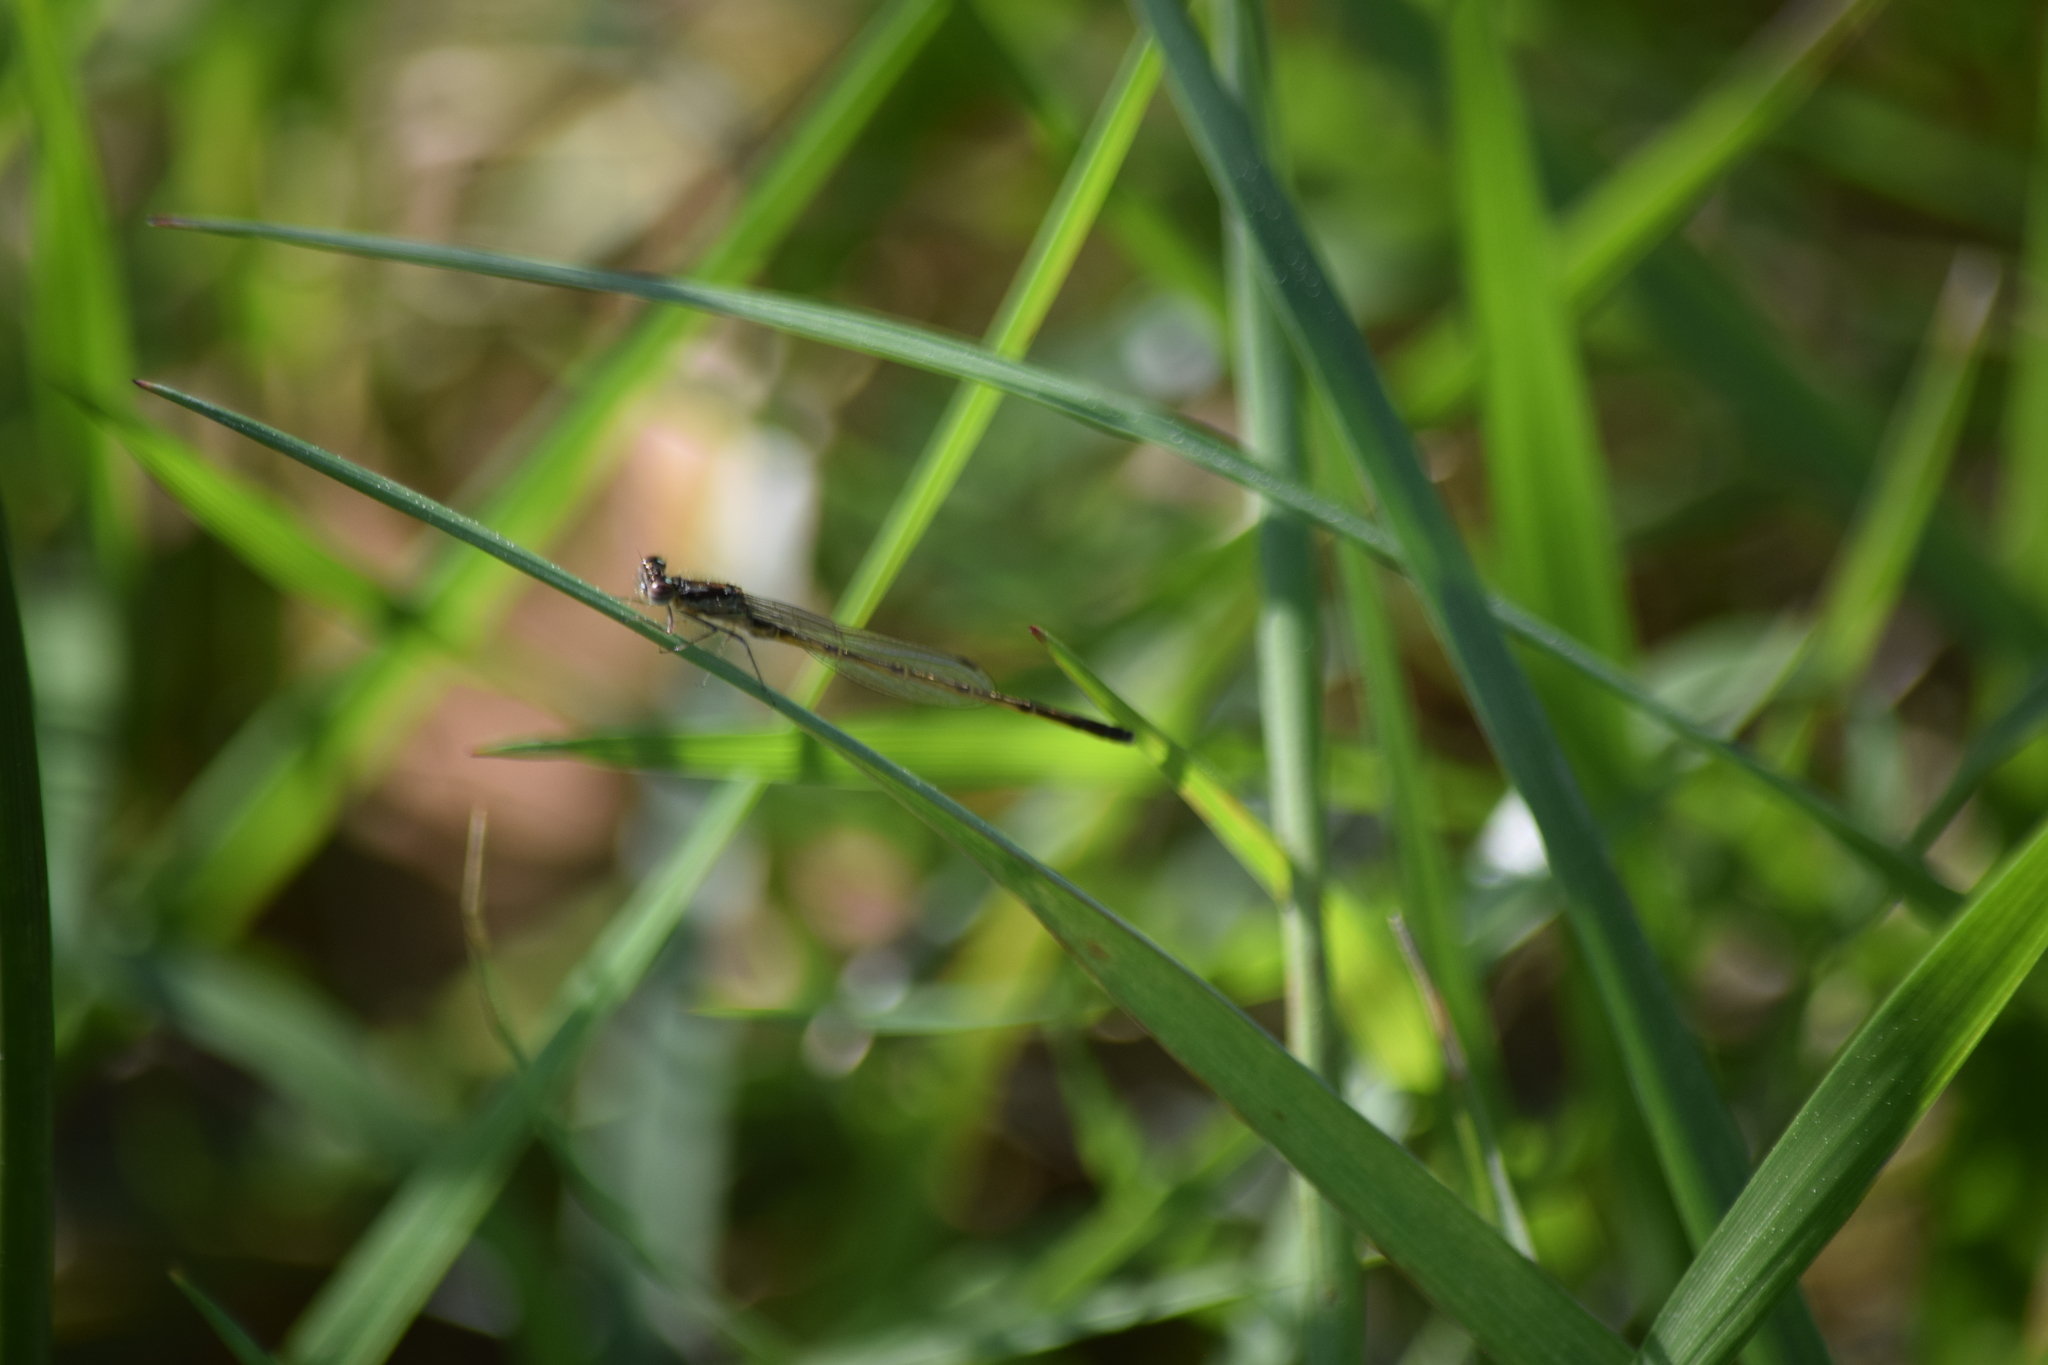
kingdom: Animalia
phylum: Arthropoda
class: Insecta
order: Odonata
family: Coenagrionidae
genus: Ischnura
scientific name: Ischnura posita
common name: Fragile forktail
